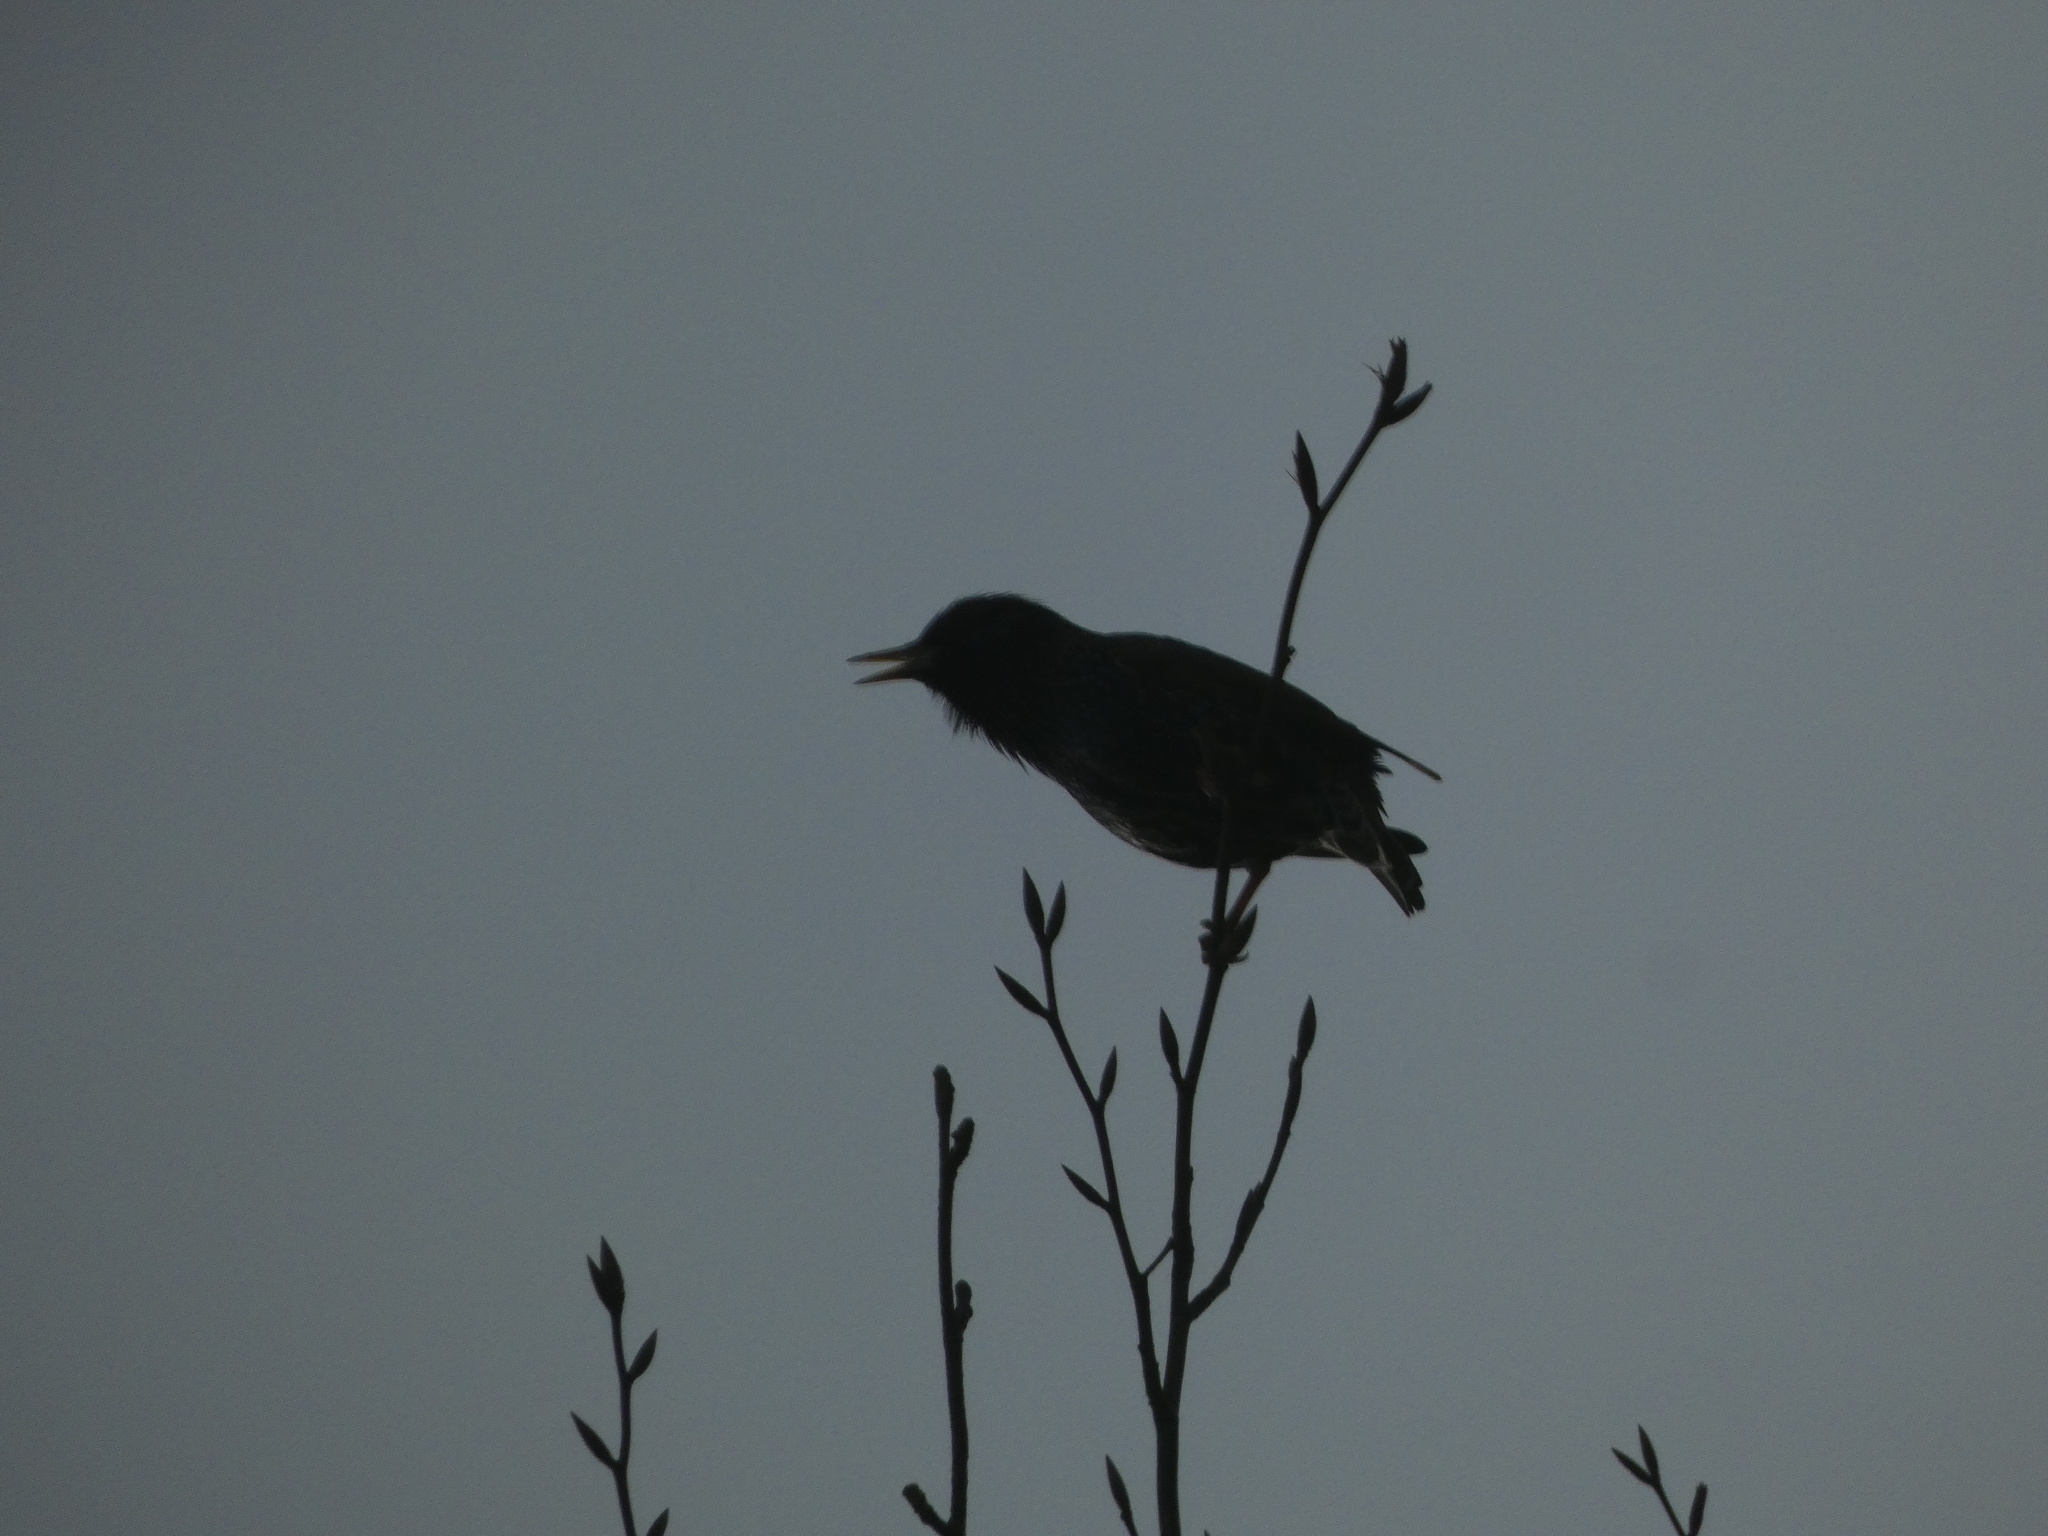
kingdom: Animalia
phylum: Chordata
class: Aves
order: Passeriformes
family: Sturnidae
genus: Sturnus
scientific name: Sturnus vulgaris
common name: Common starling
